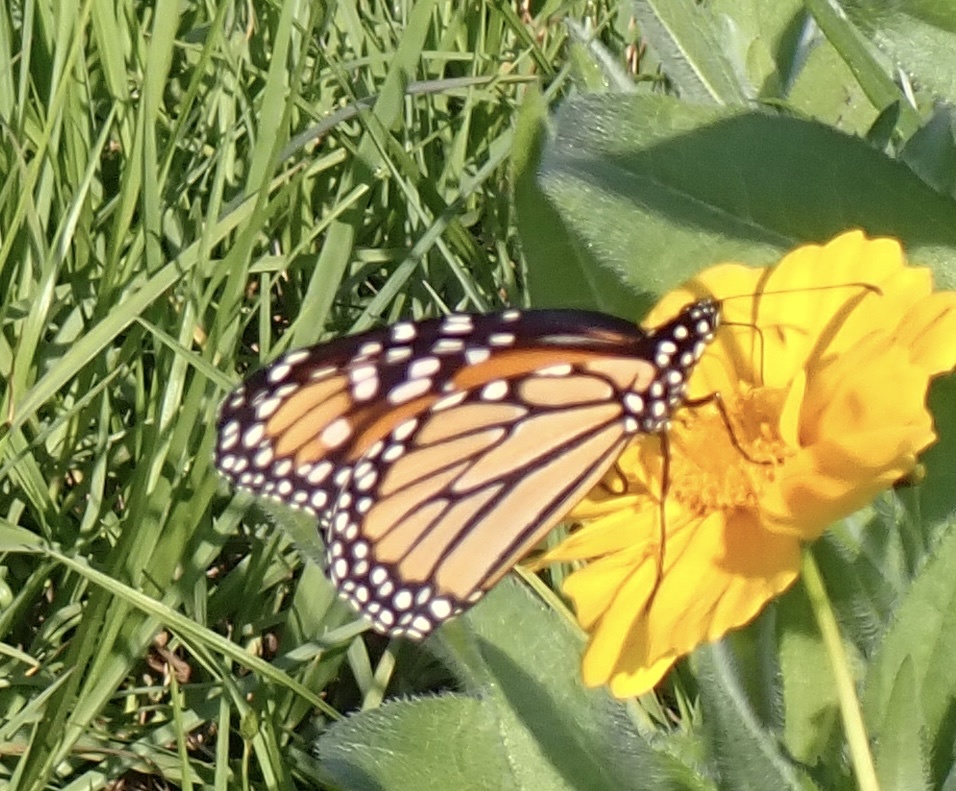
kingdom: Animalia
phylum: Arthropoda
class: Insecta
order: Lepidoptera
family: Nymphalidae
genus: Danaus
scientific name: Danaus plexippus
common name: Monarch
